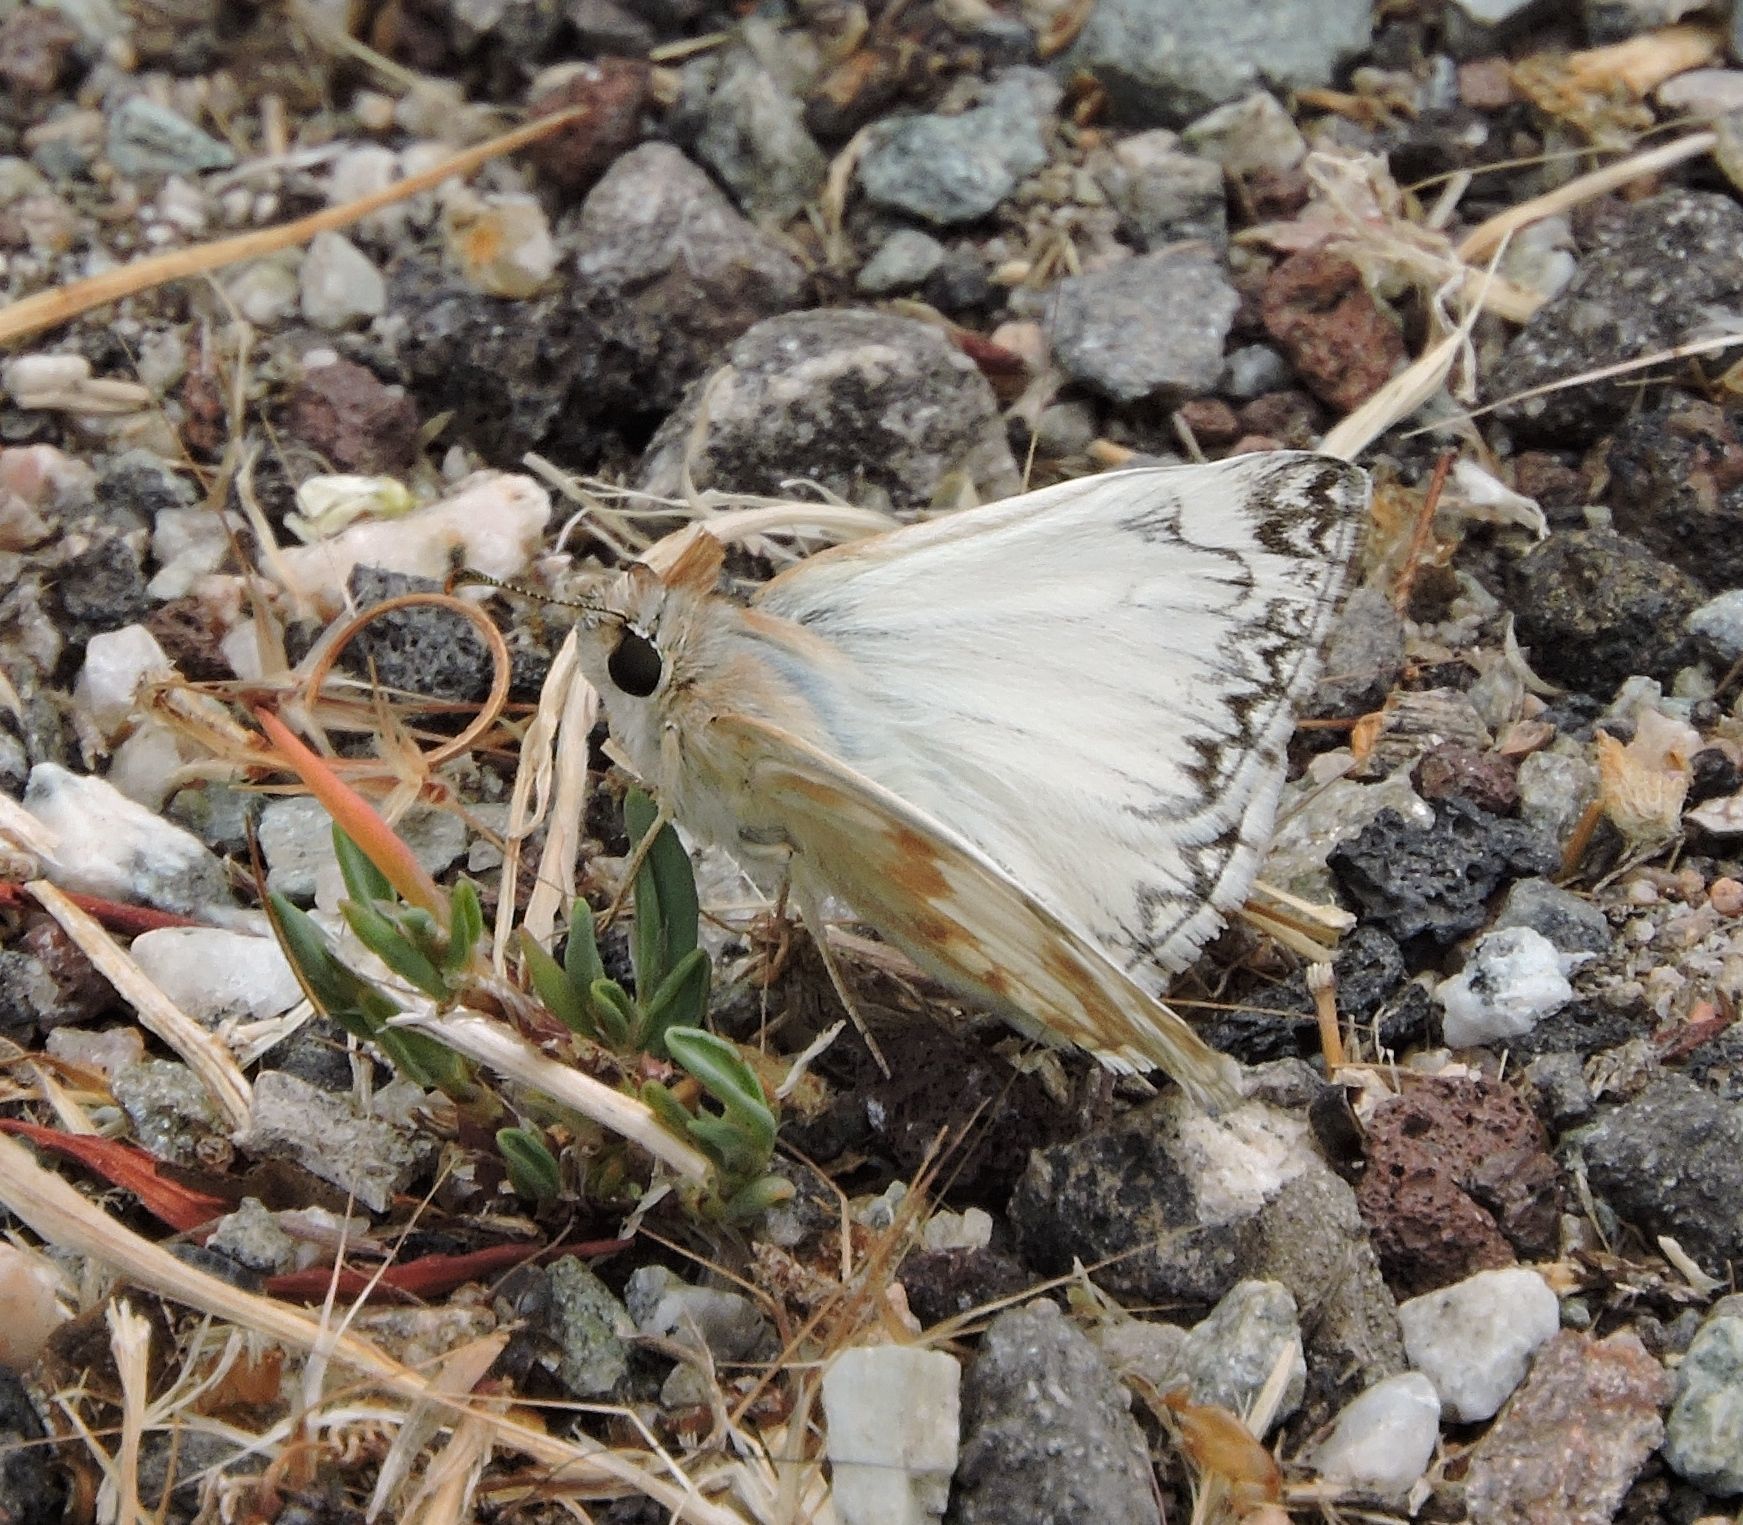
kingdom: Animalia
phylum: Arthropoda
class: Insecta
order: Lepidoptera
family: Hesperiidae
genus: Heliopetes
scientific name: Heliopetes ericetorum
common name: Northern white-skipper
